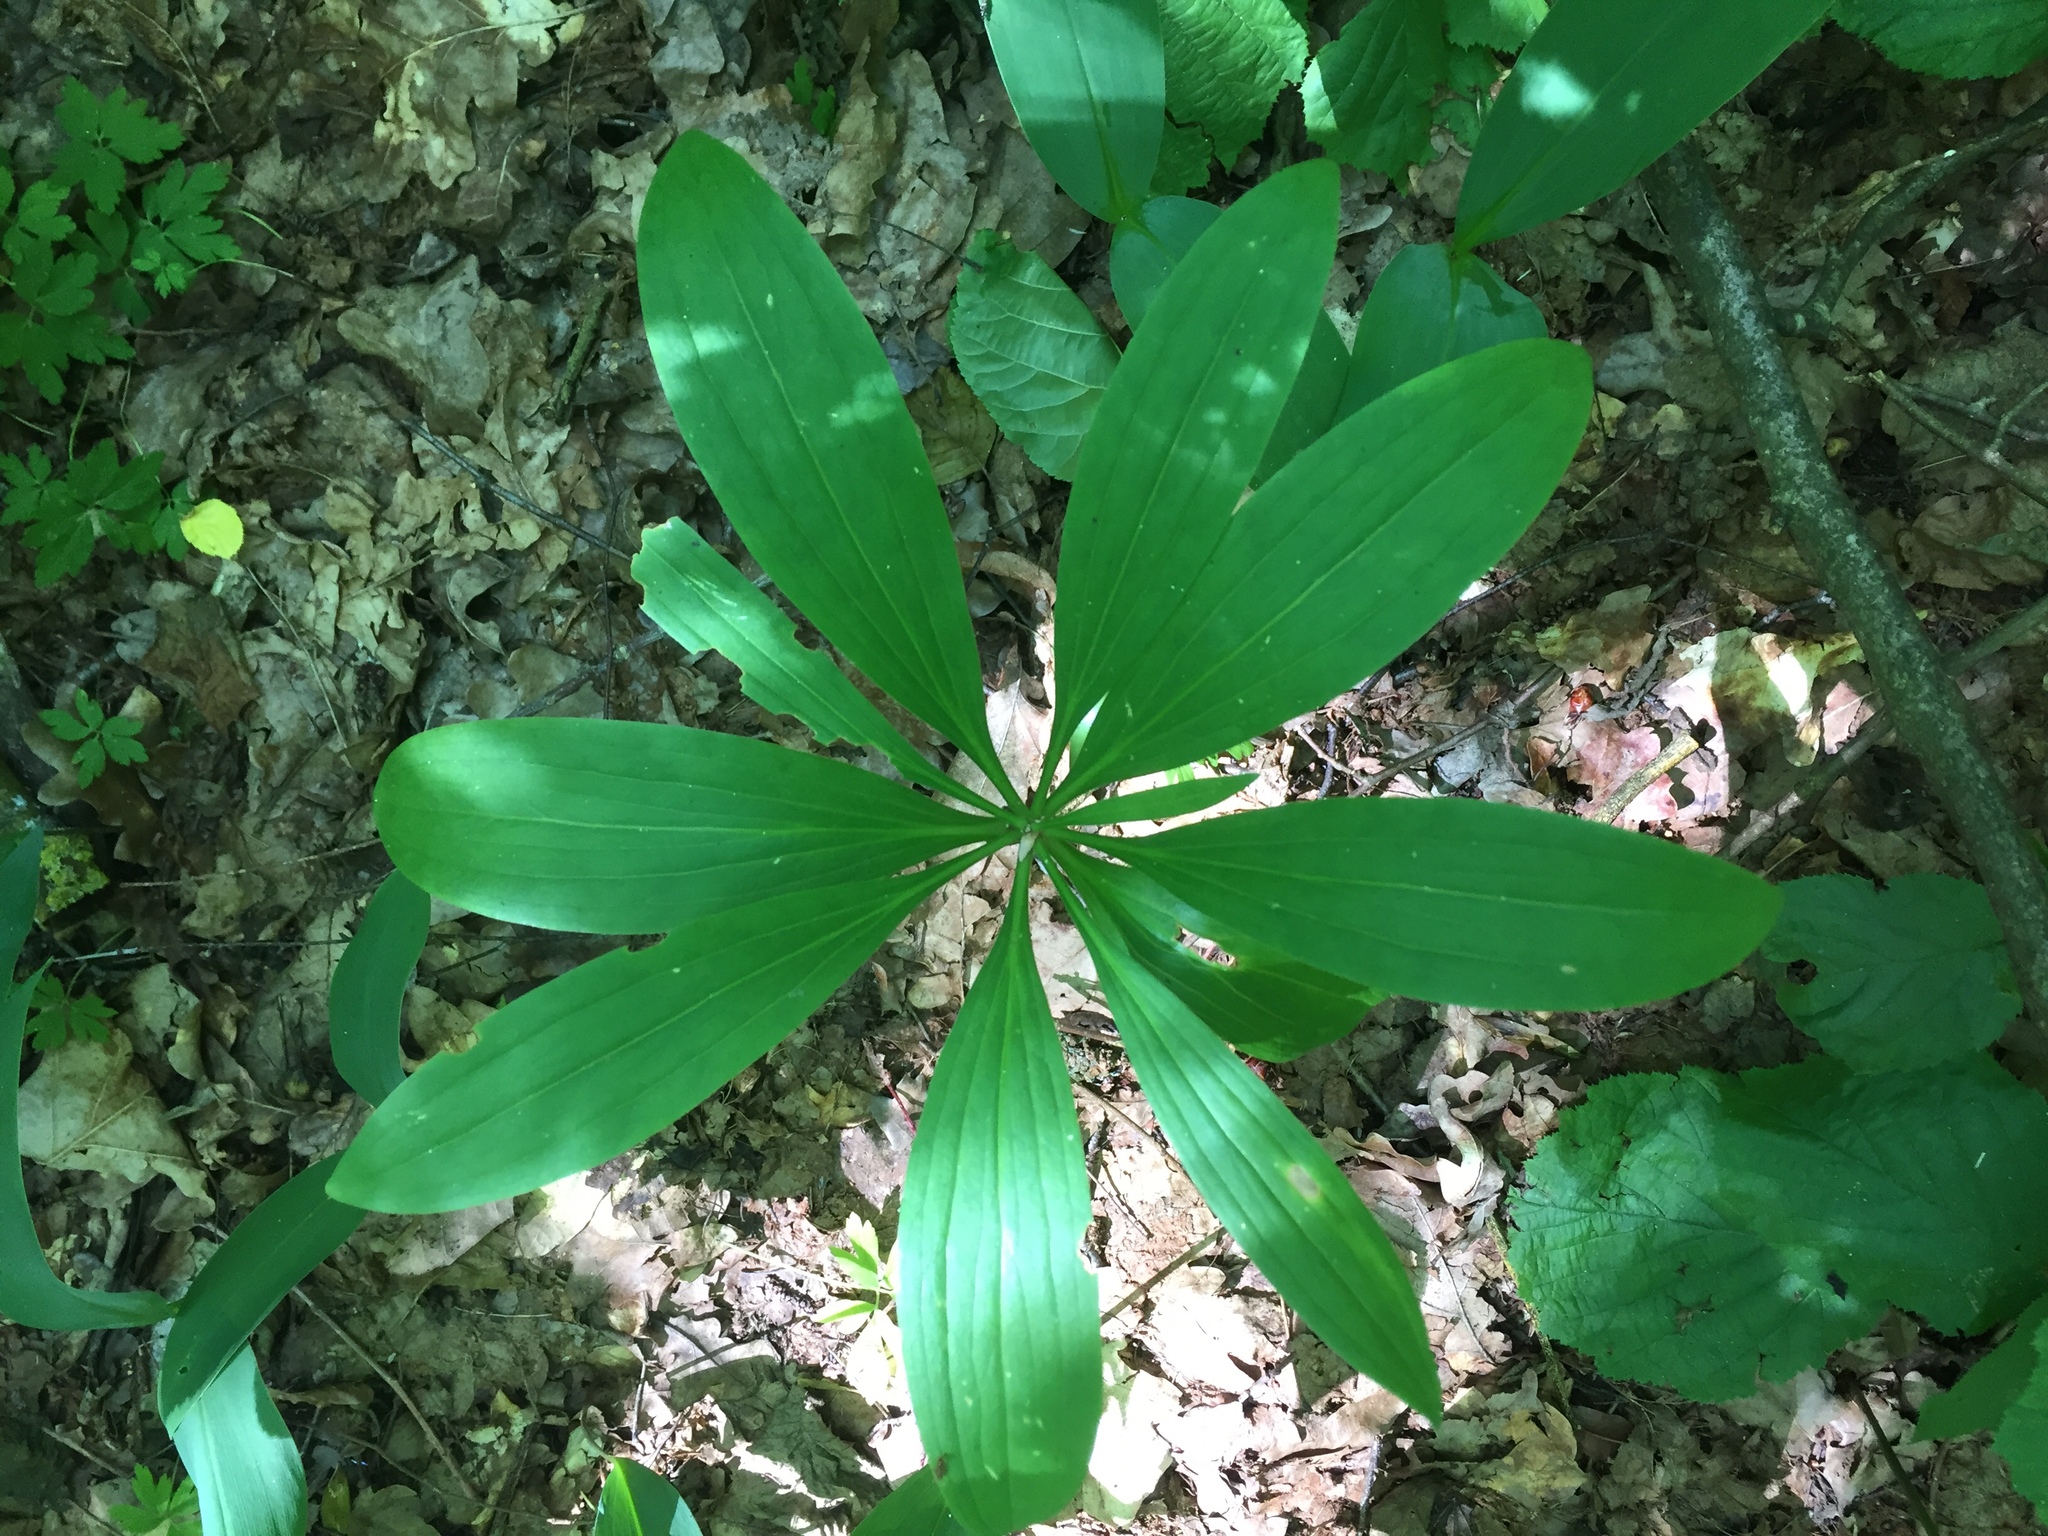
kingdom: Plantae
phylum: Tracheophyta
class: Liliopsida
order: Liliales
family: Liliaceae
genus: Lilium
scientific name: Lilium martagon
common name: Martagon lily
